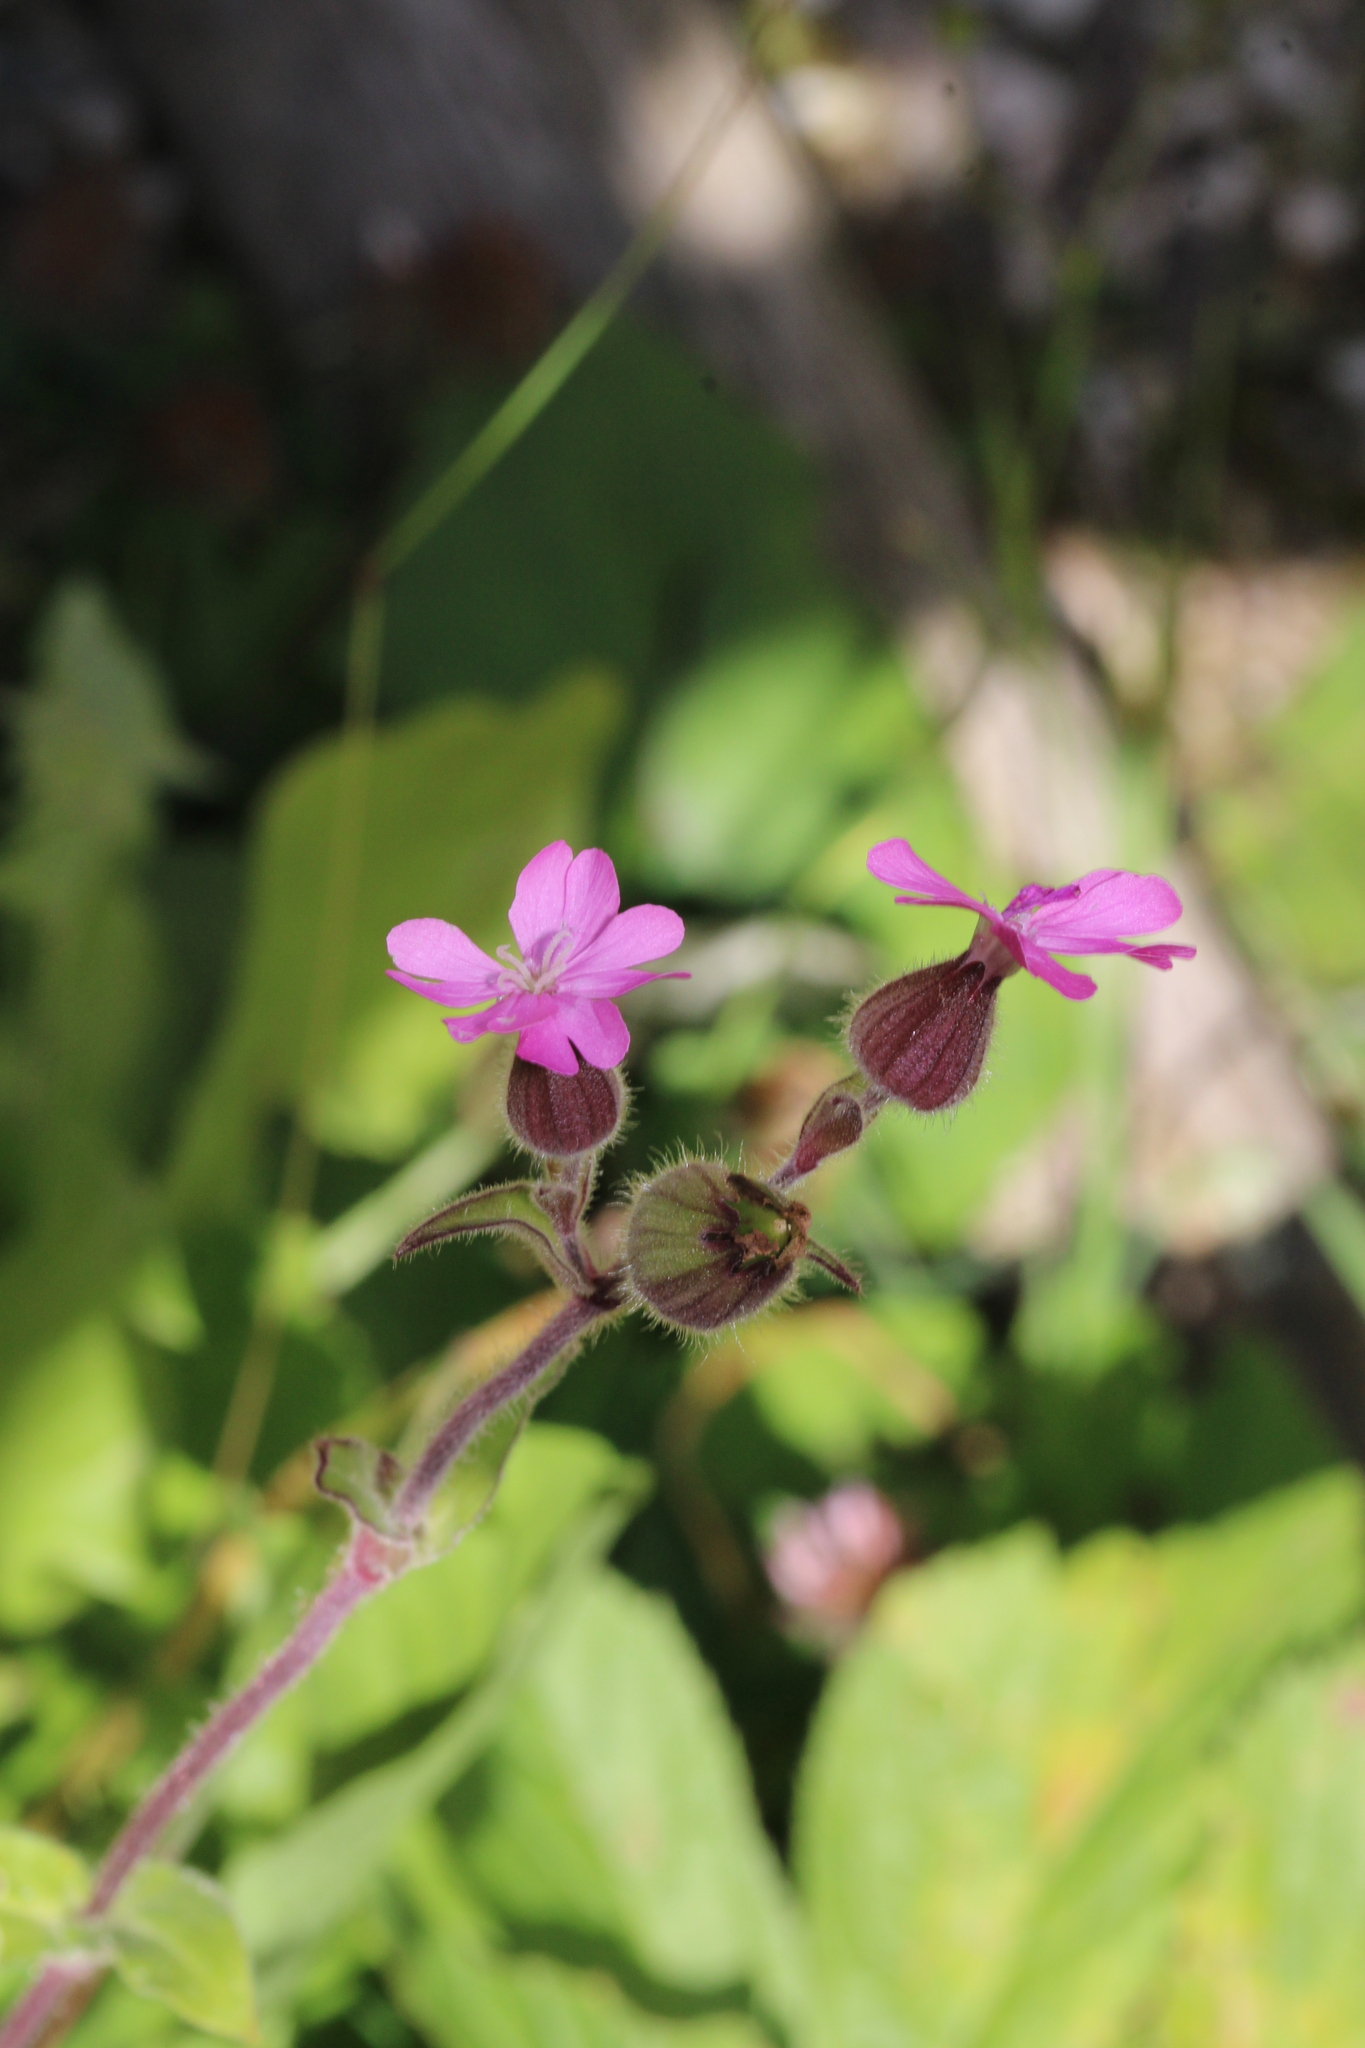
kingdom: Plantae
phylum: Tracheophyta
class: Magnoliopsida
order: Caryophyllales
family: Caryophyllaceae
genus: Silene
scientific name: Silene dioica
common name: Red campion
